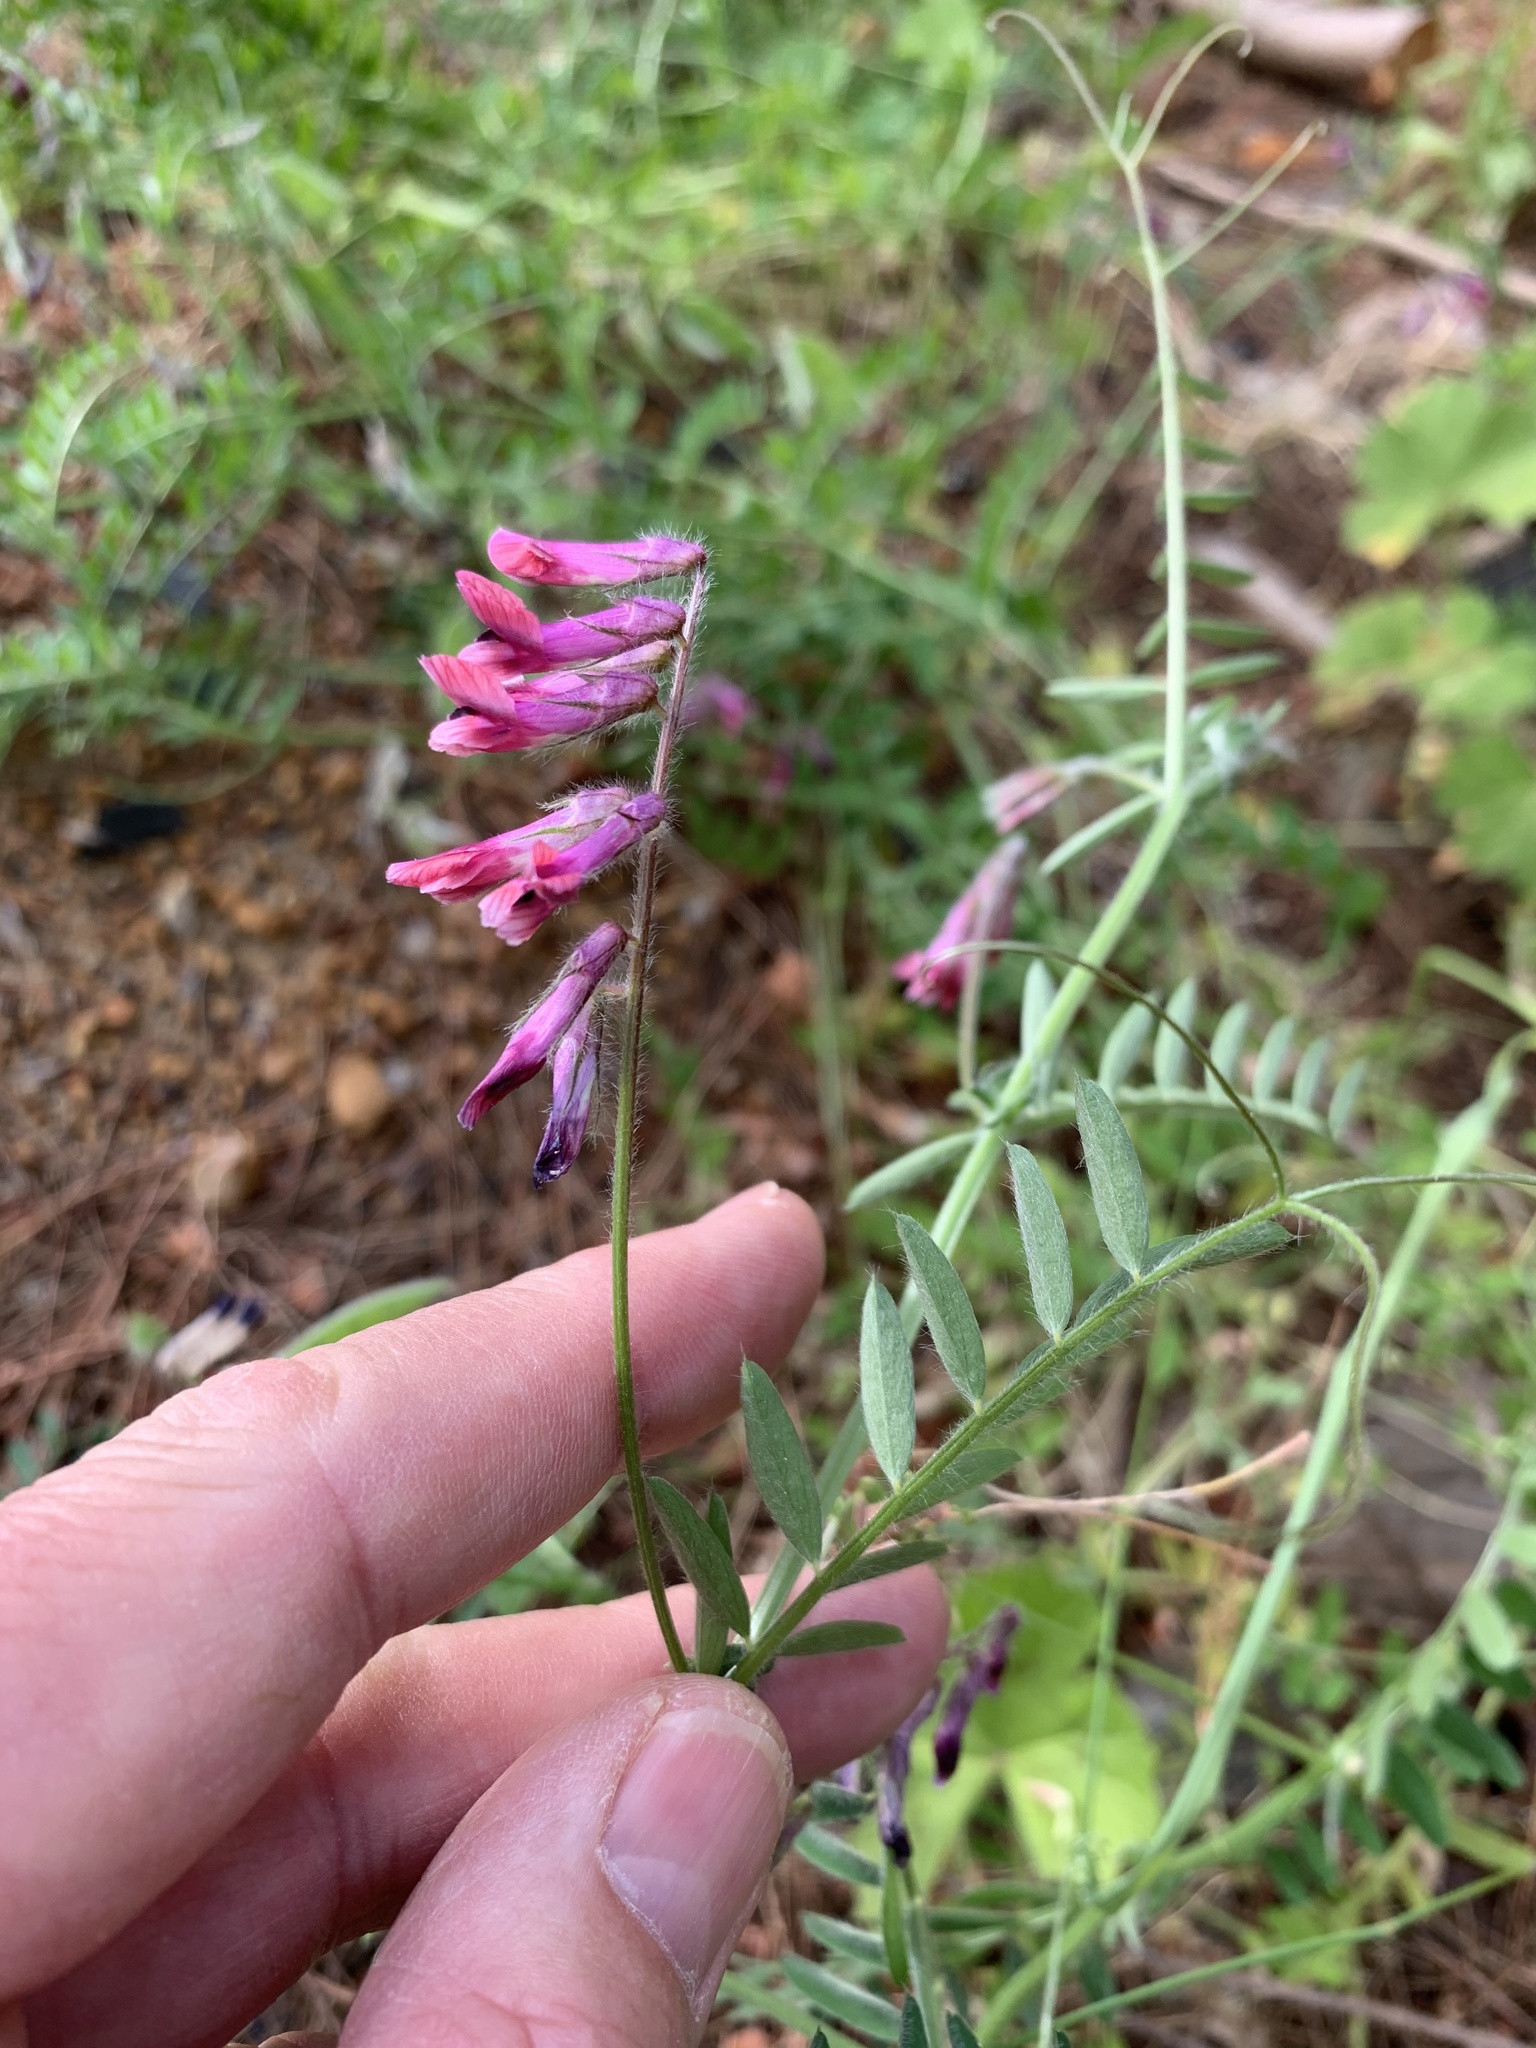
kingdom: Plantae
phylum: Tracheophyta
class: Magnoliopsida
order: Fabales
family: Fabaceae
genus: Vicia
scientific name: Vicia benghalensis
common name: Purple vetch
